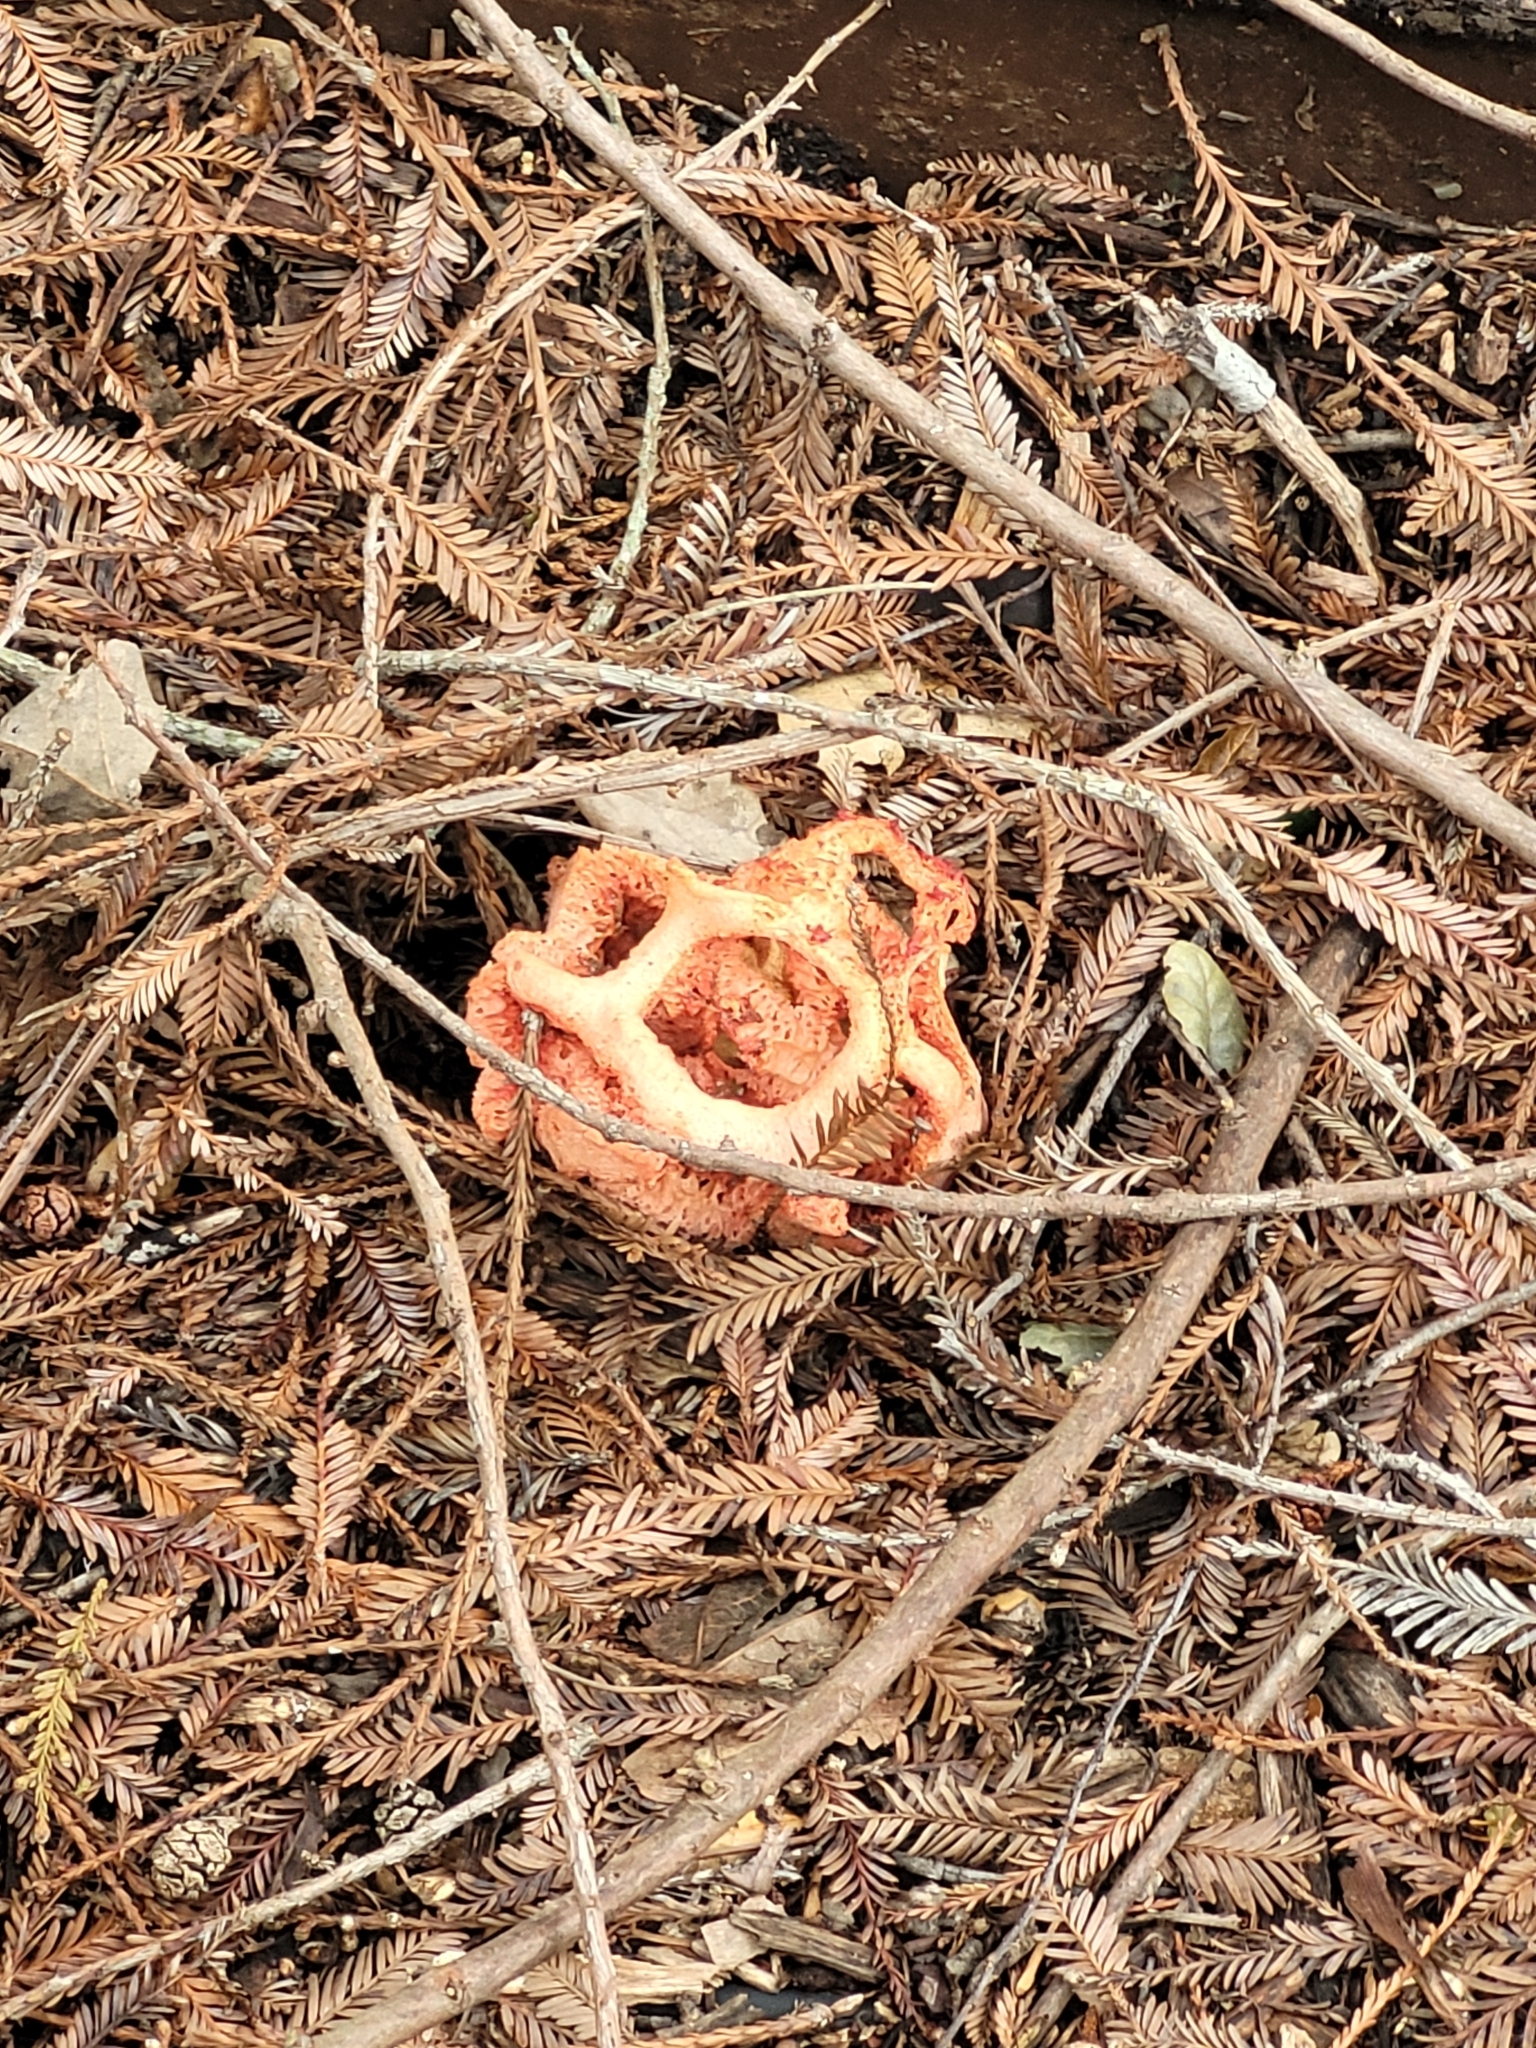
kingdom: Fungi
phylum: Basidiomycota
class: Agaricomycetes
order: Phallales
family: Phallaceae
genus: Clathrus
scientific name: Clathrus ruber
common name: Red cage
